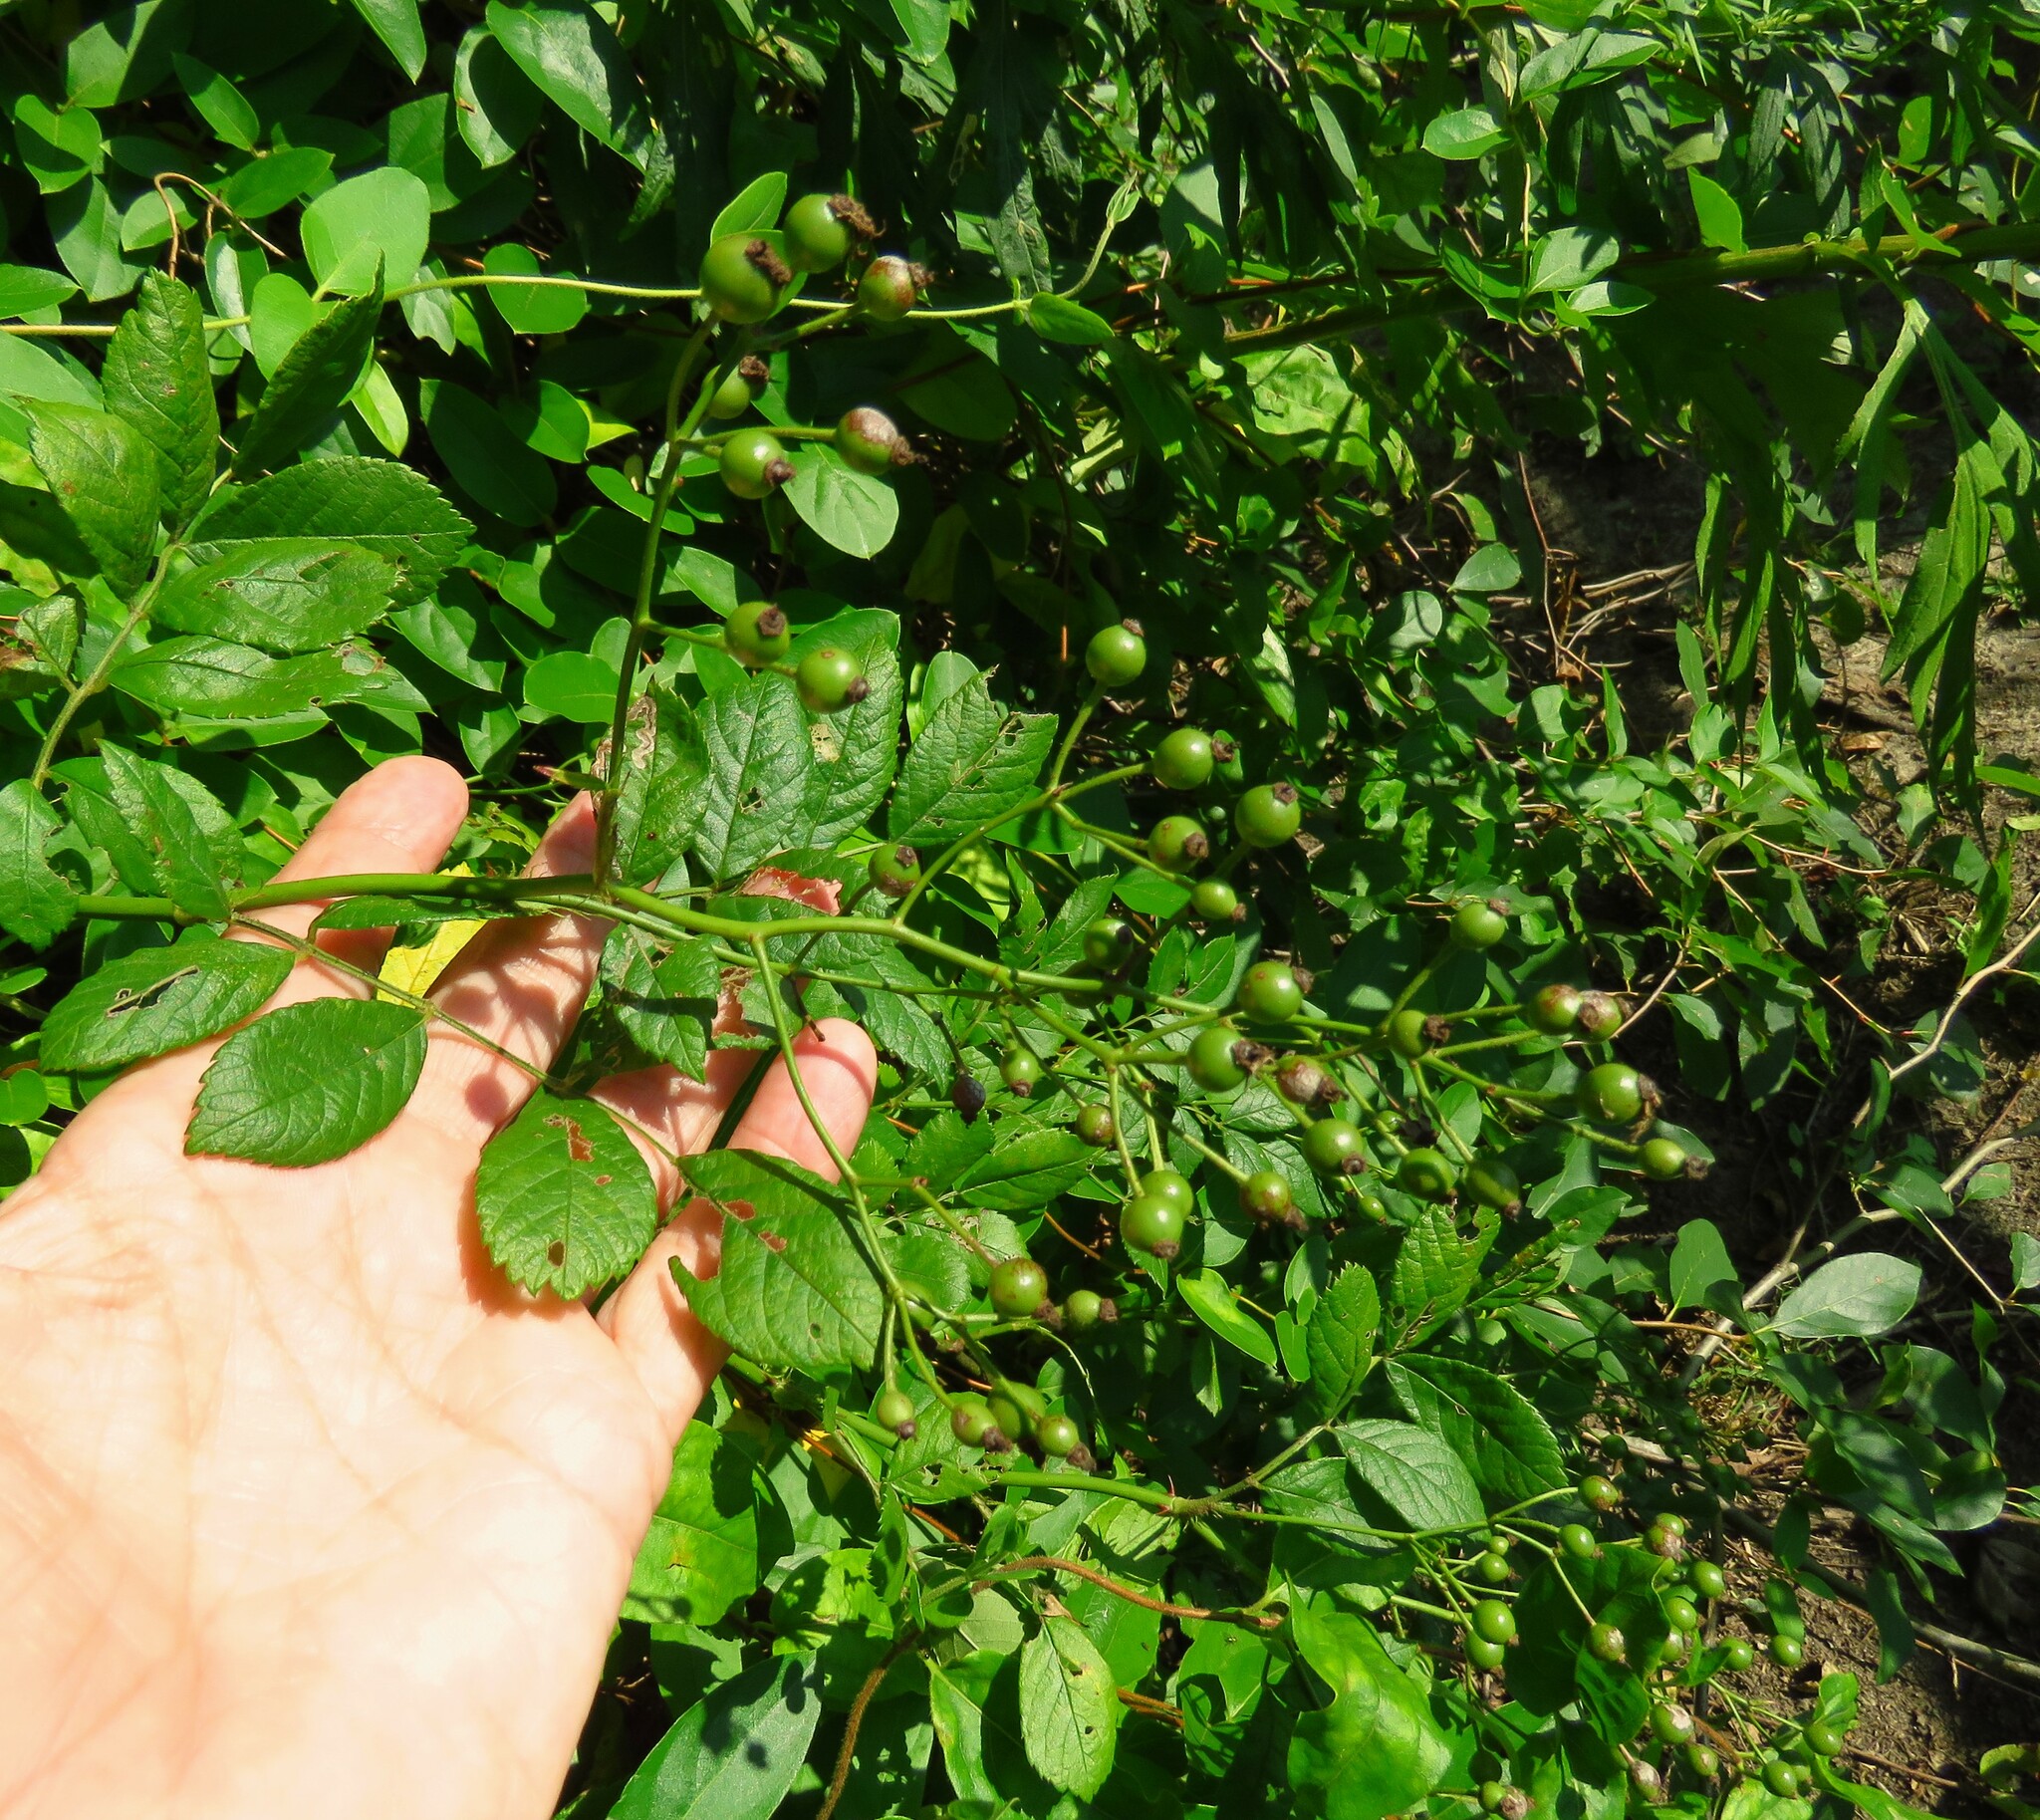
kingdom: Plantae
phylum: Tracheophyta
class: Magnoliopsida
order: Rosales
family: Rosaceae
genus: Rosa
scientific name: Rosa multiflora
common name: Multiflora rose
